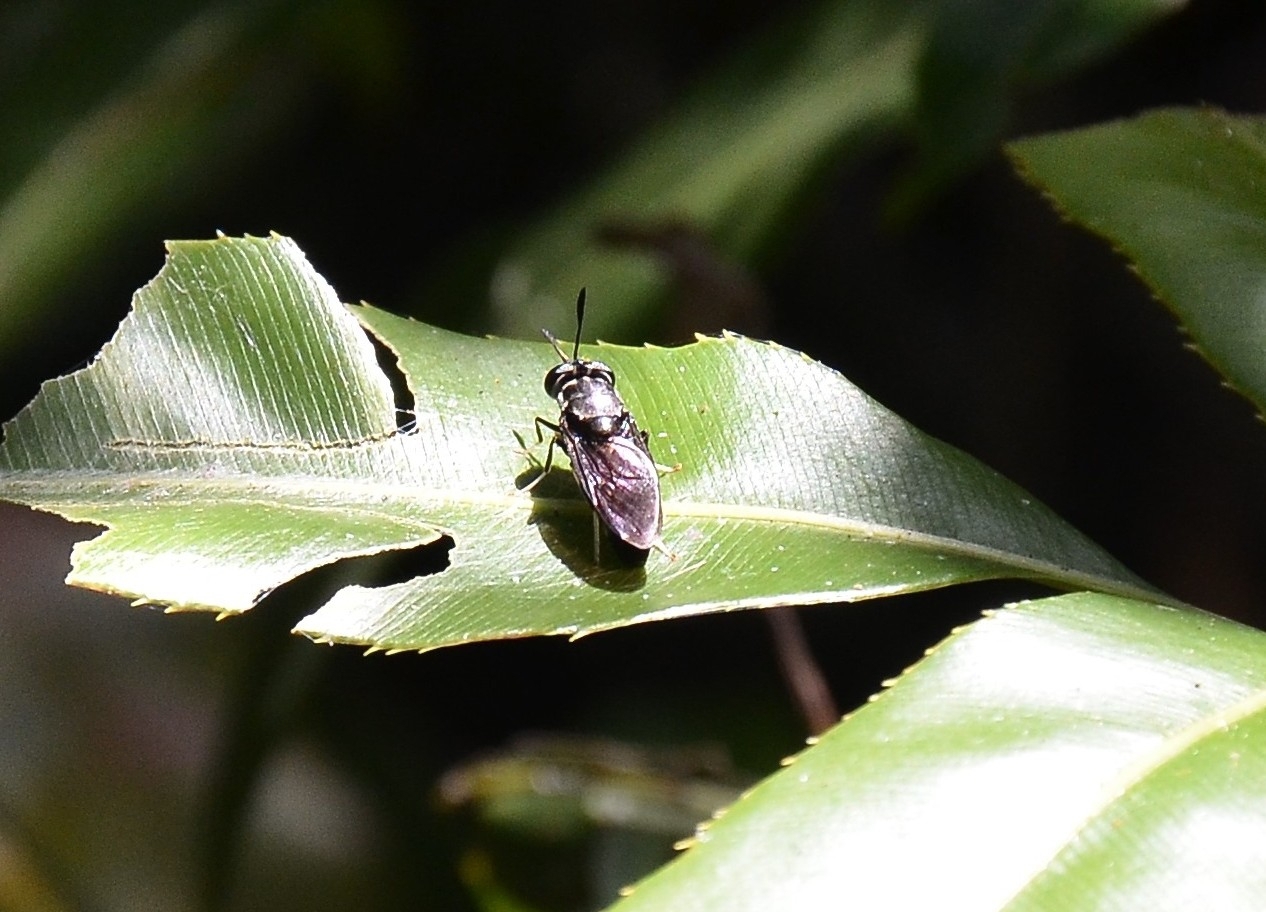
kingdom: Animalia
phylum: Arthropoda
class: Insecta
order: Diptera
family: Stratiomyidae
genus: Hermetia
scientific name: Hermetia illucens
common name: Black soldier fly
